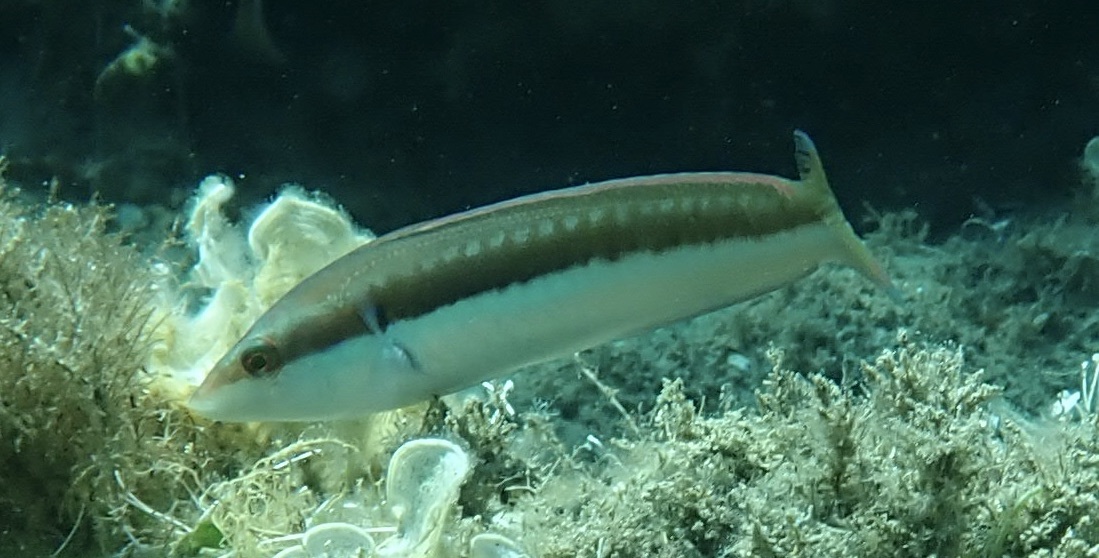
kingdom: Animalia
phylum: Chordata
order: Perciformes
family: Labridae
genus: Coris
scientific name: Coris julis
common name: Rainbow wrasse
